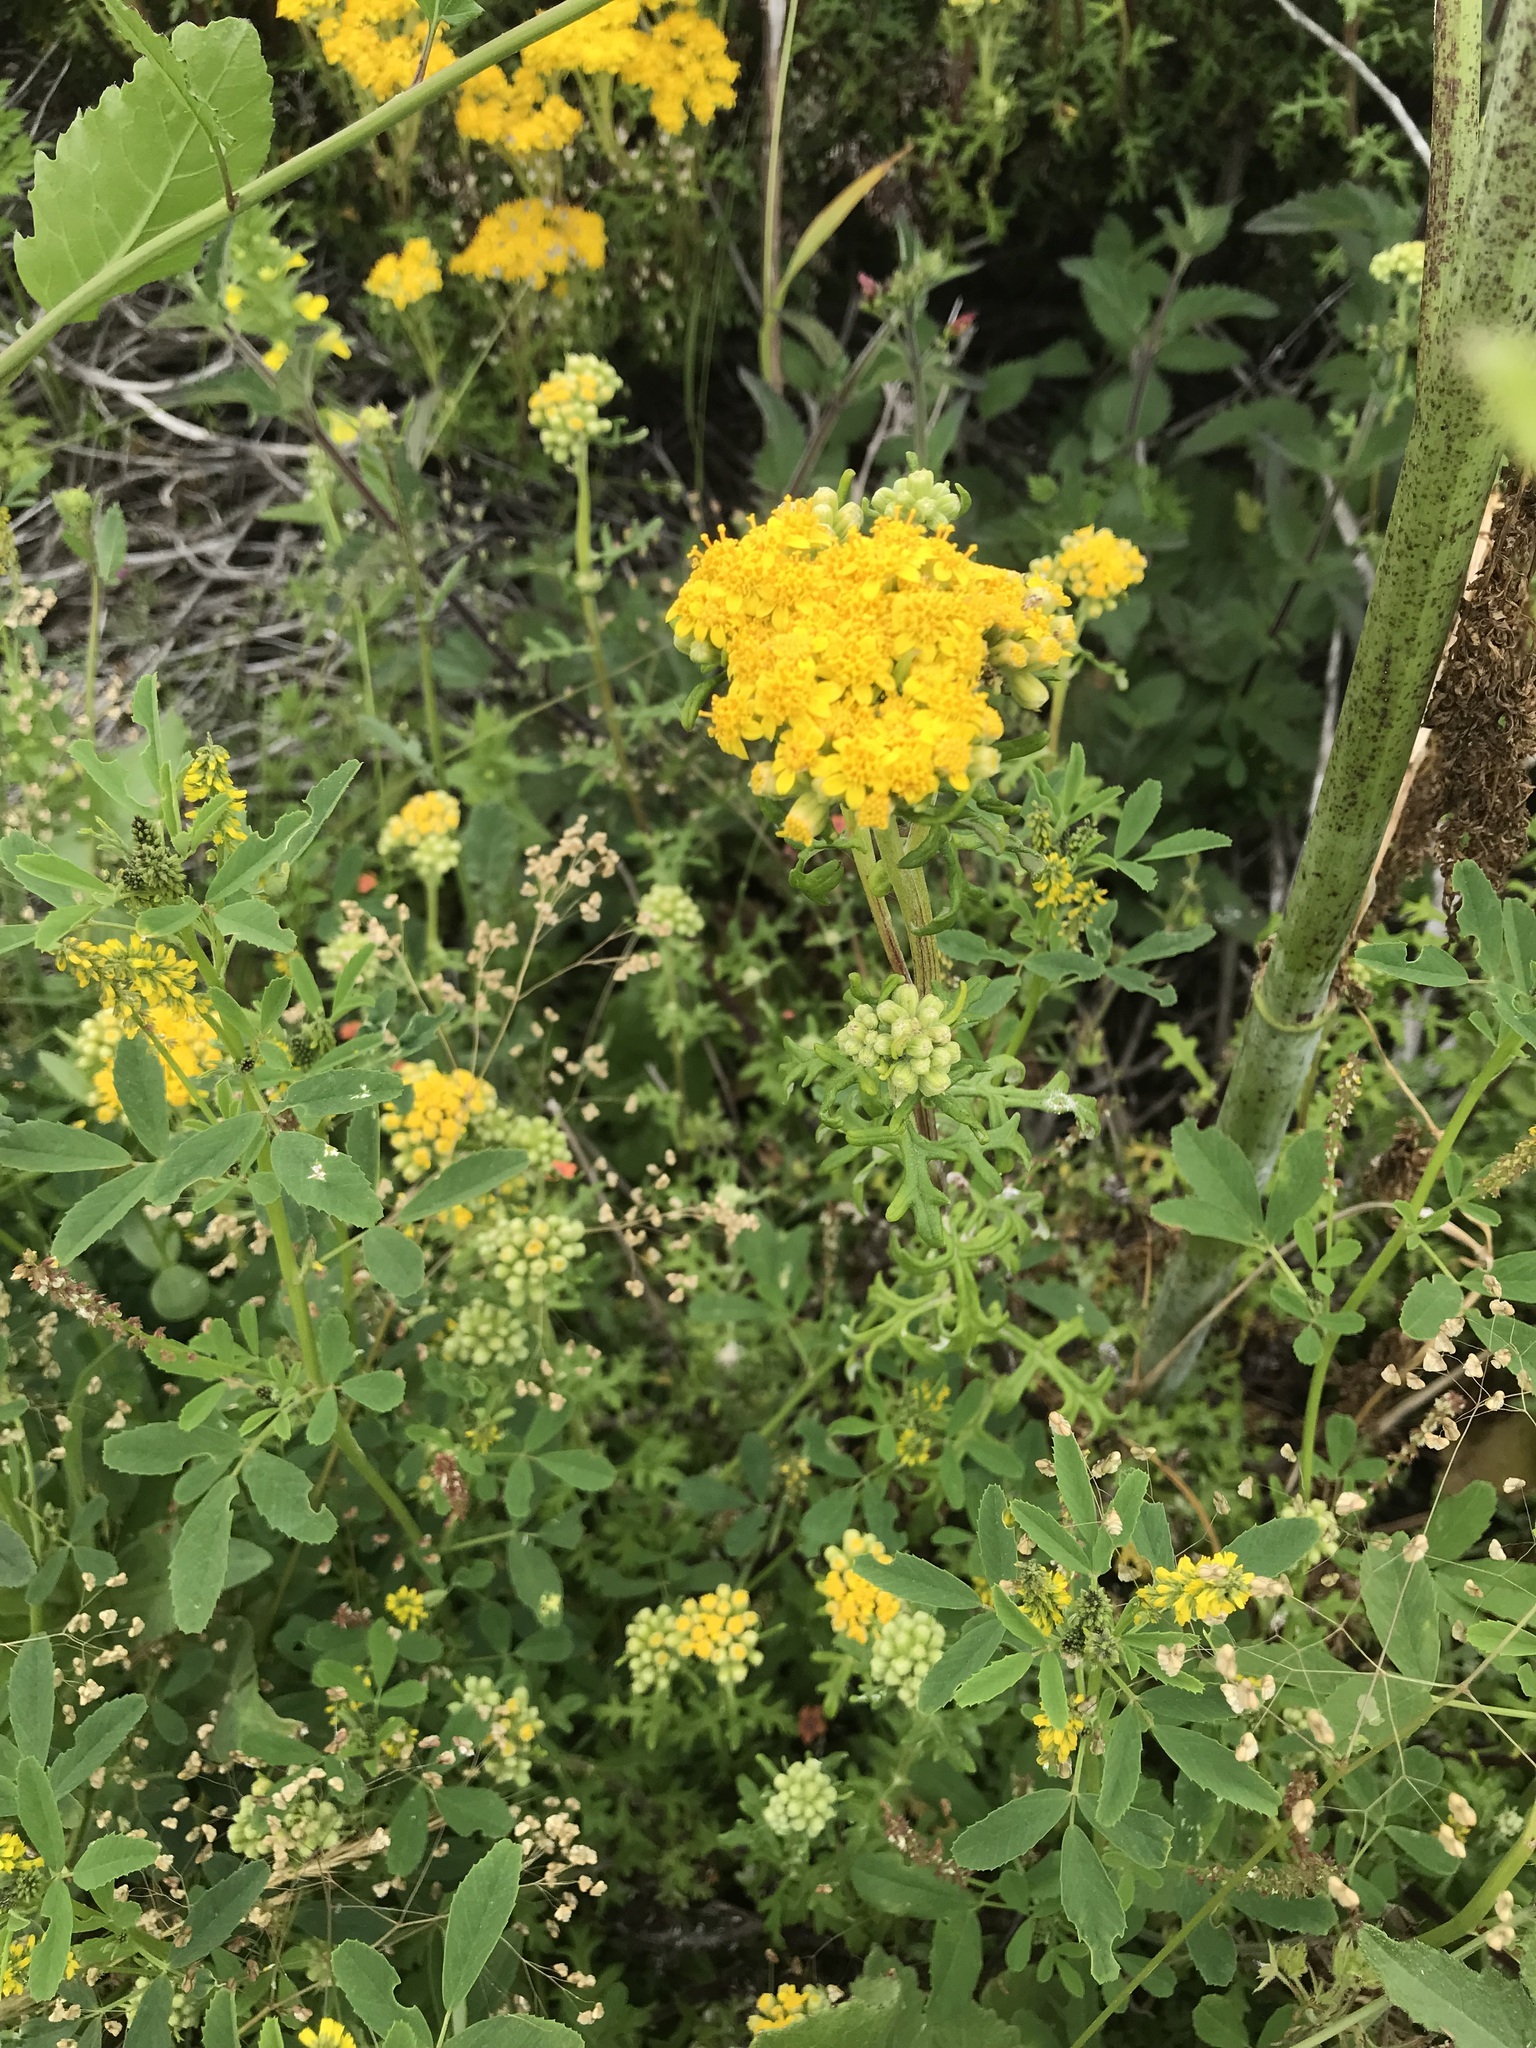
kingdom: Plantae
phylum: Tracheophyta
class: Magnoliopsida
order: Asterales
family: Asteraceae
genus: Eriophyllum
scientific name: Eriophyllum staechadifolium
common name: Lizardtail
